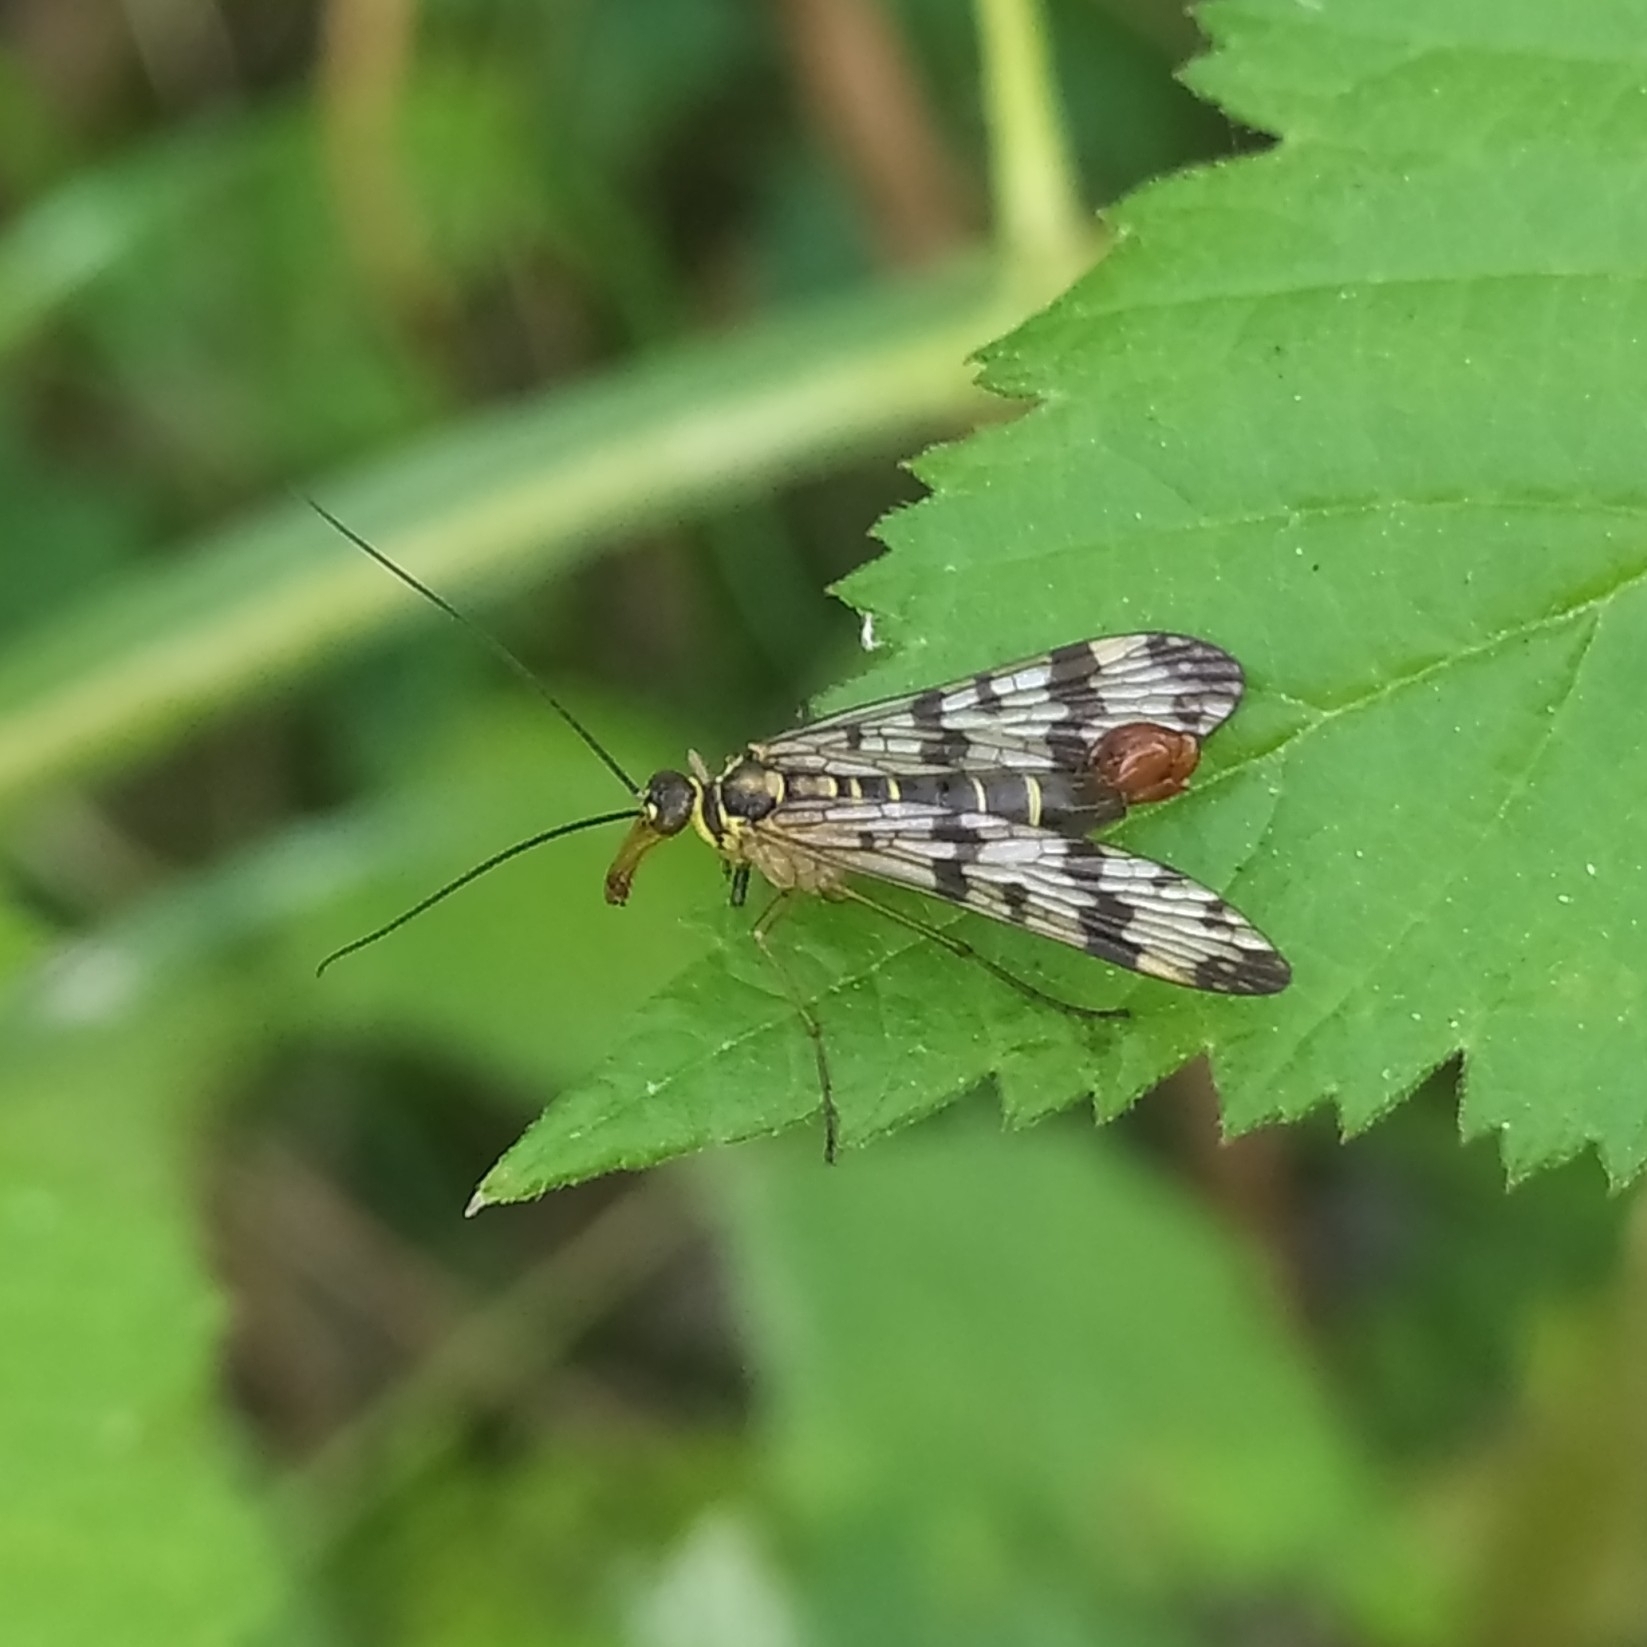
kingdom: Animalia
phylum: Arthropoda
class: Insecta
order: Mecoptera
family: Panorpidae
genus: Panorpa
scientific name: Panorpa communis
